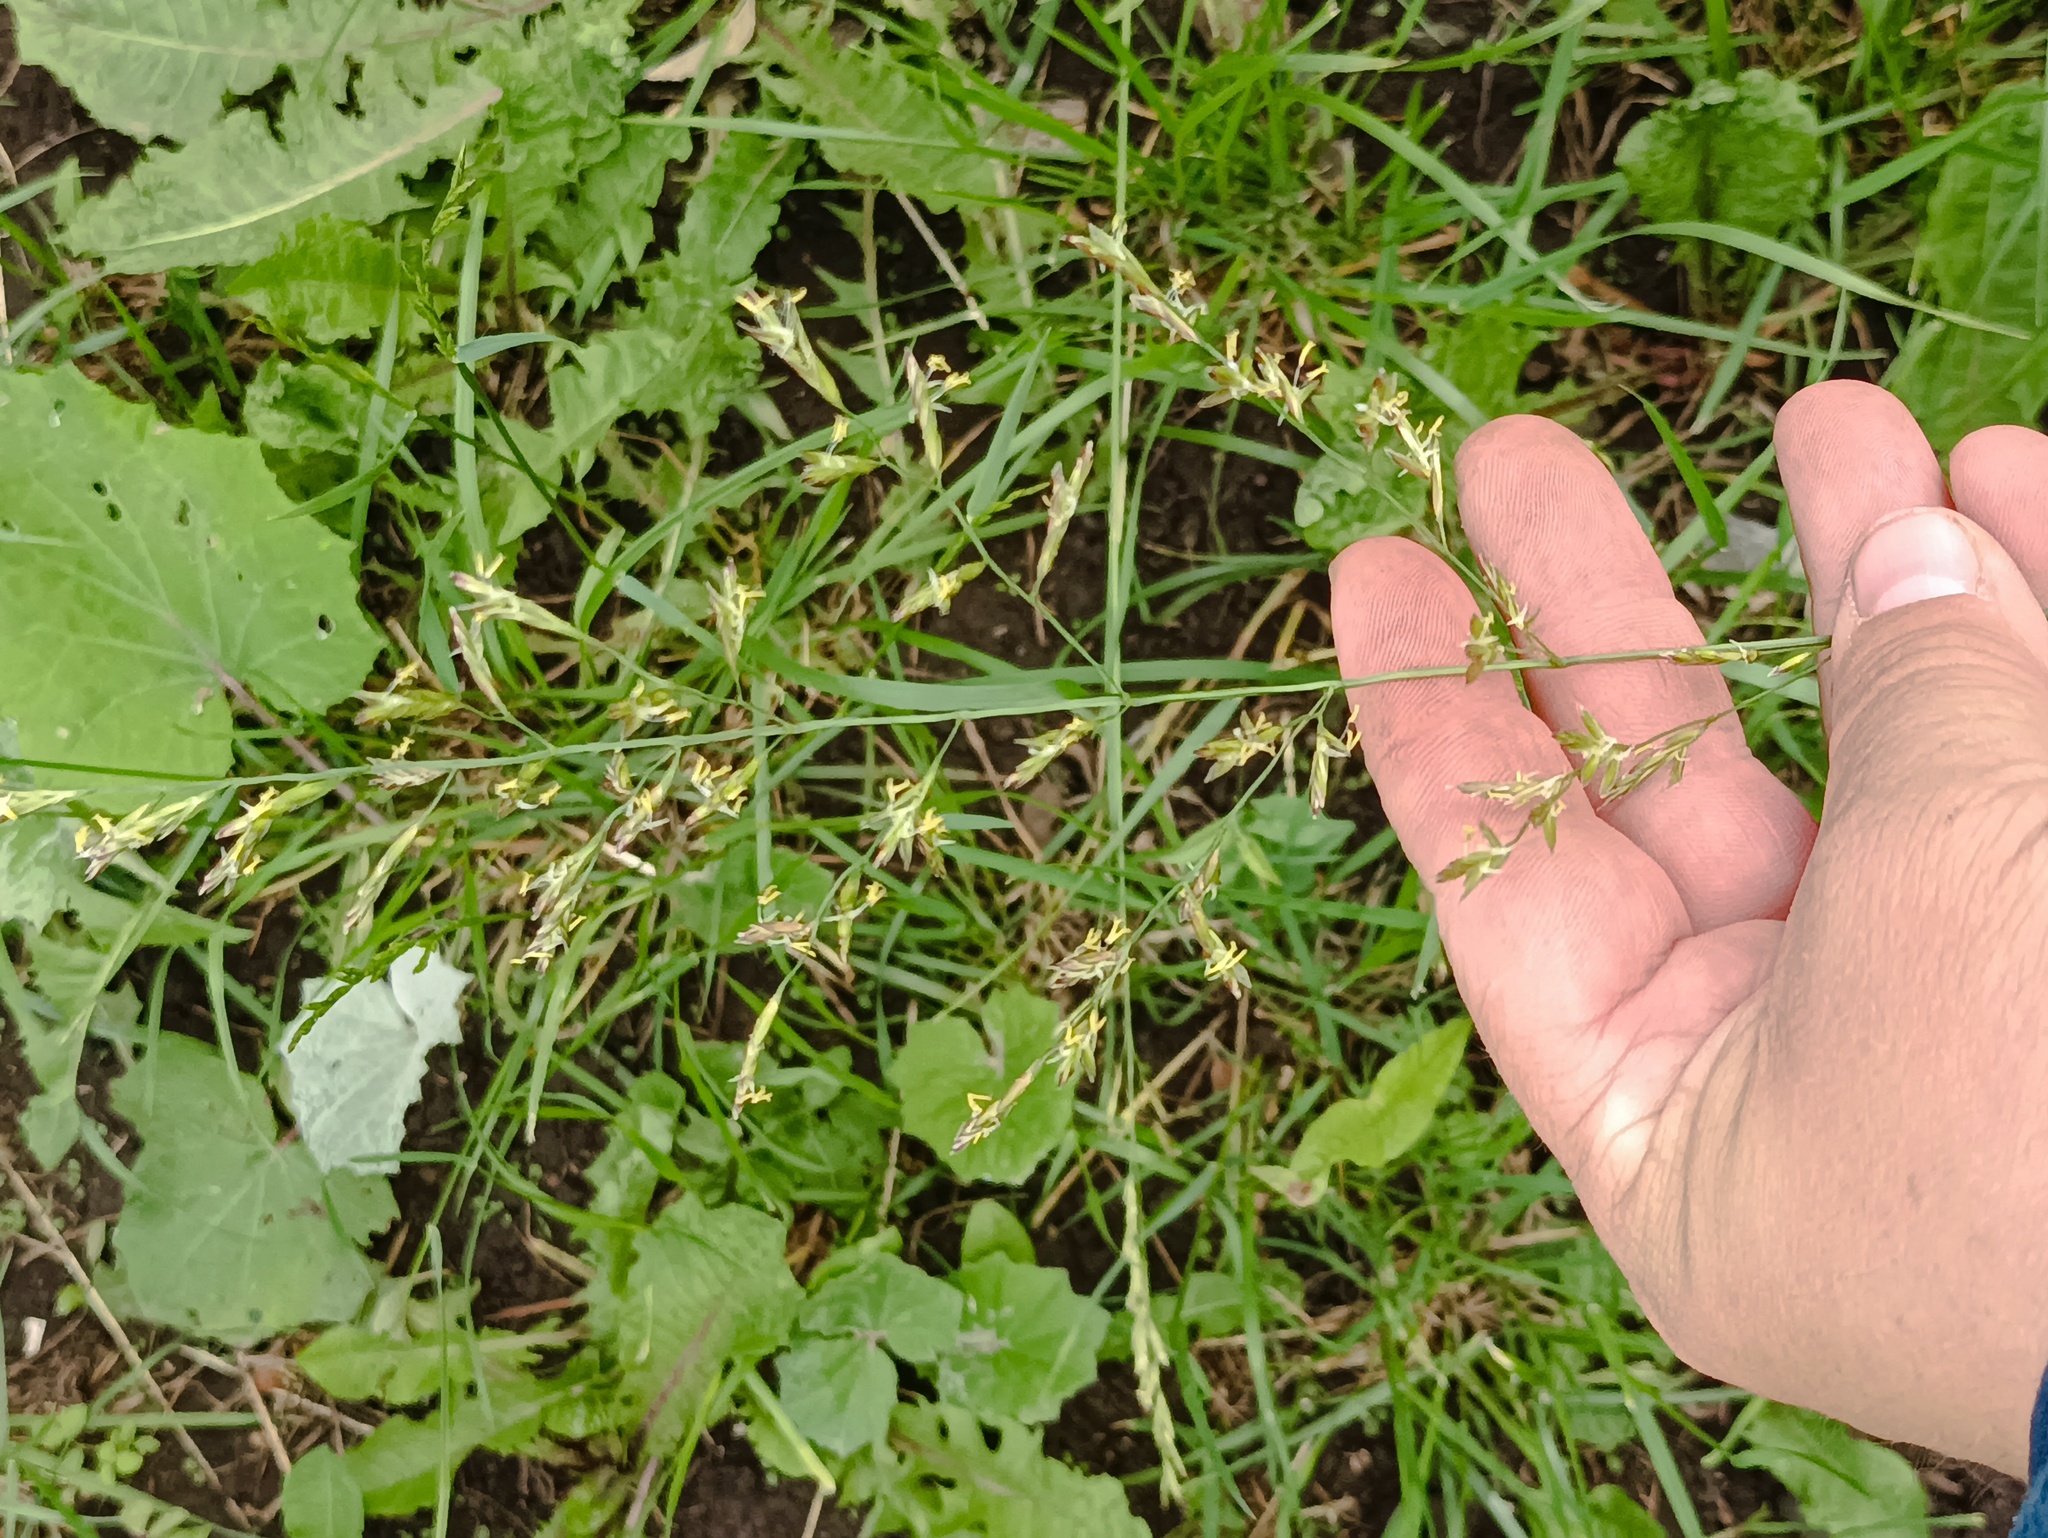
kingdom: Plantae
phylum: Tracheophyta
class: Liliopsida
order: Poales
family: Poaceae
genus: Lolium
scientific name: Lolium pratense
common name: Dover grass
